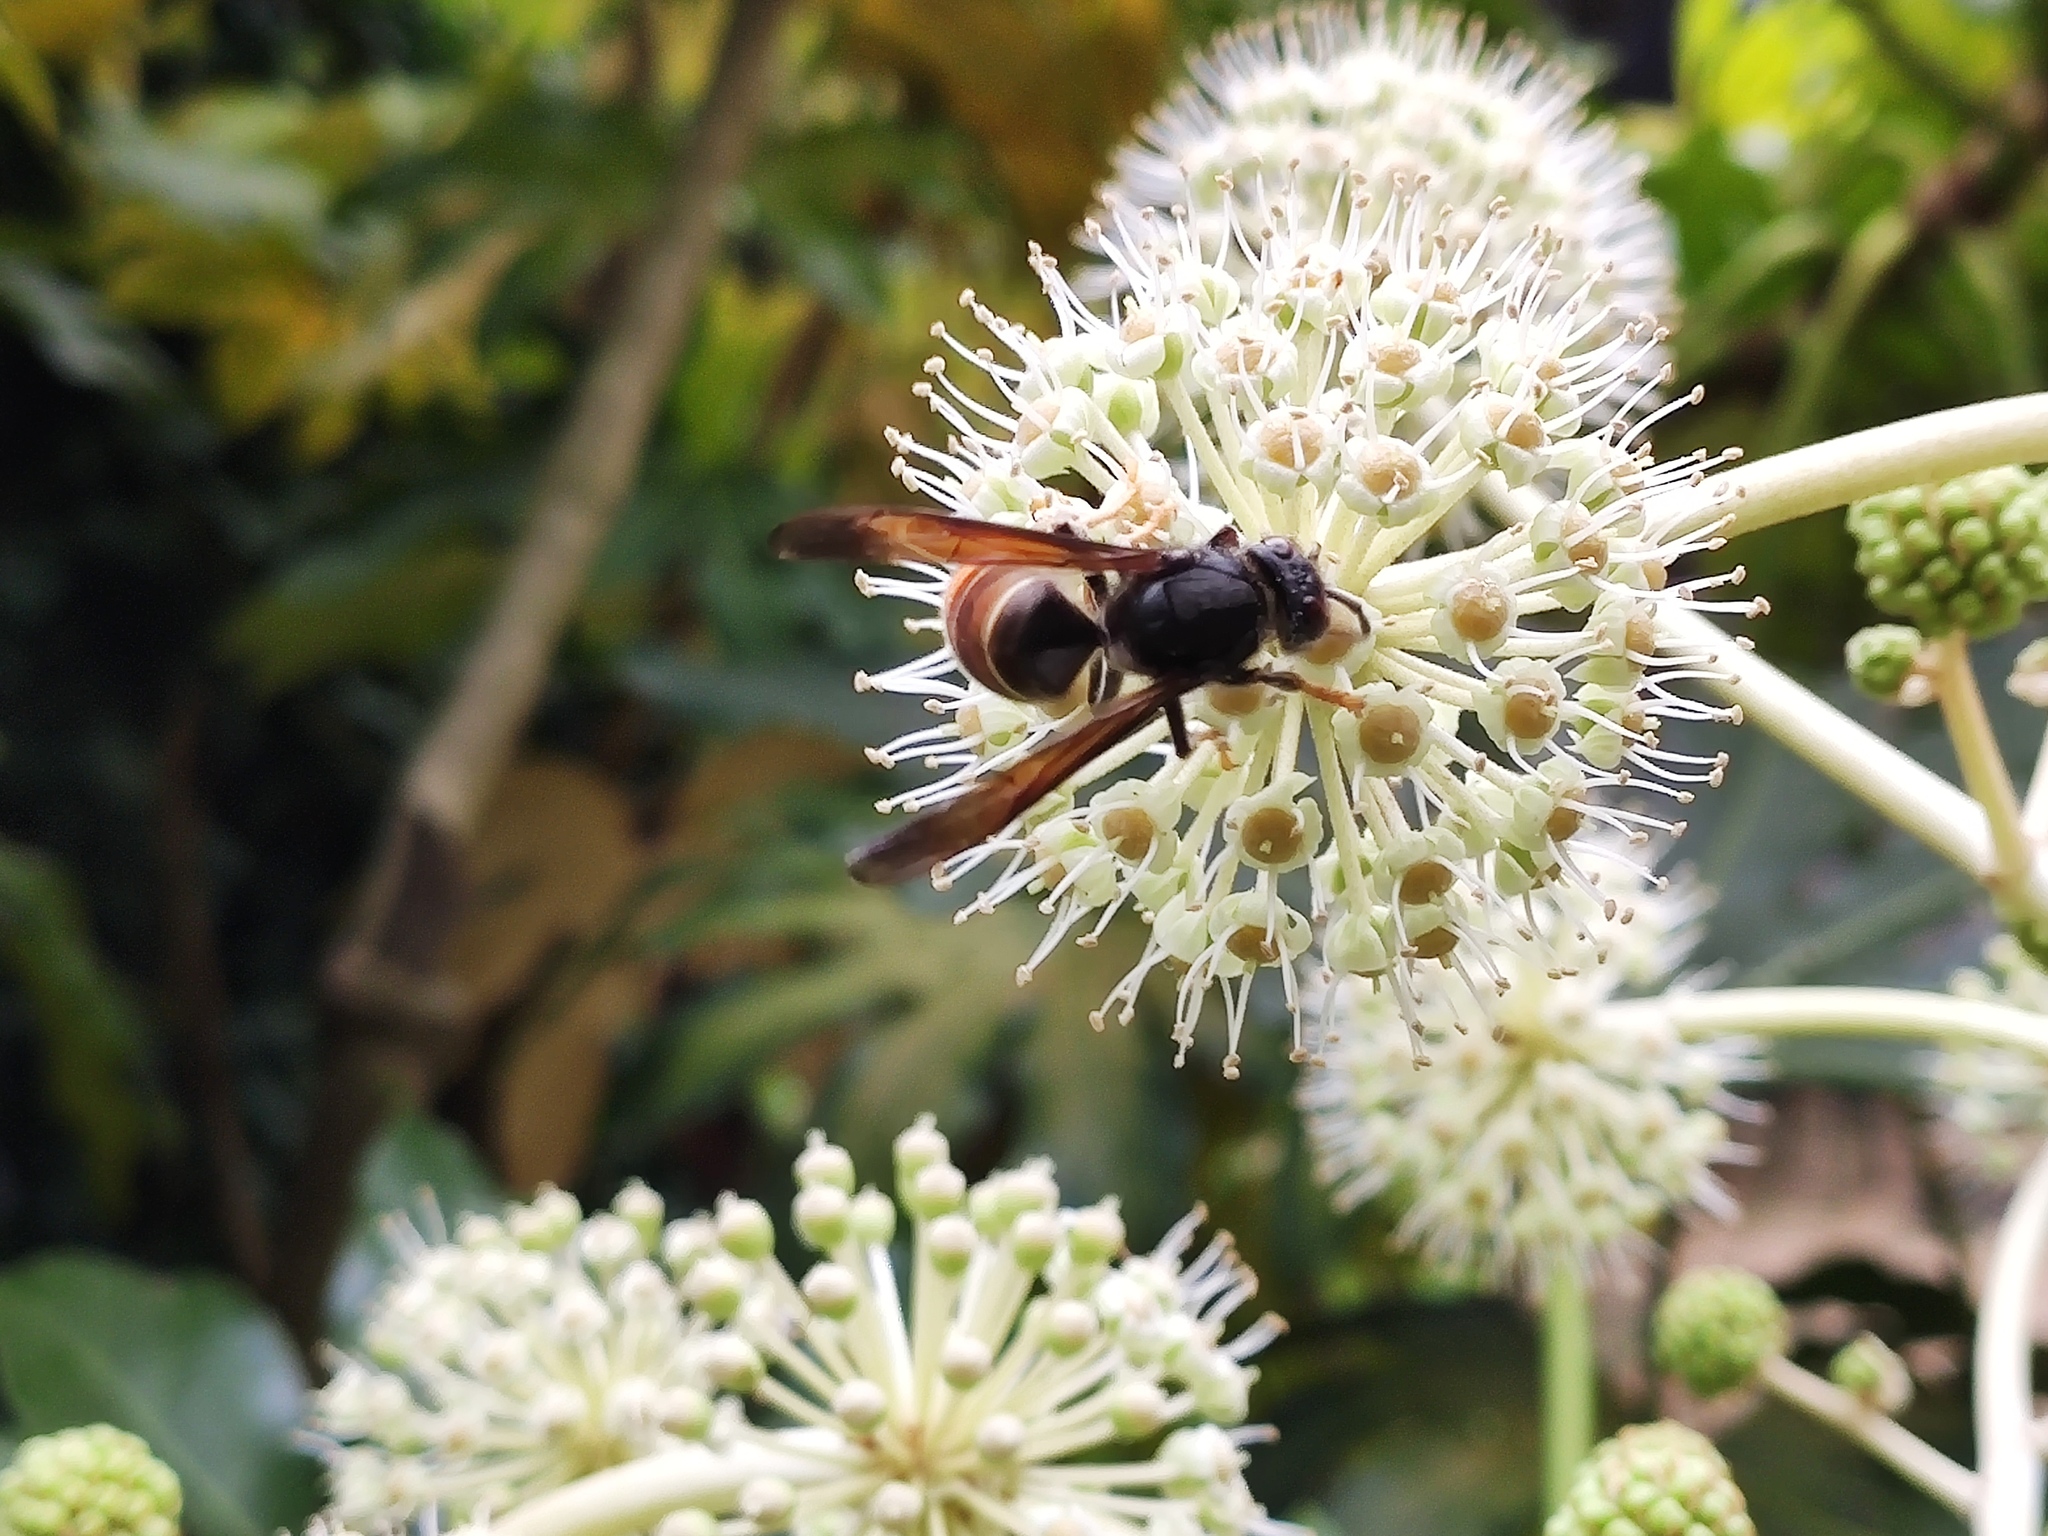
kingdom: Animalia
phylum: Arthropoda
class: Insecta
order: Hymenoptera
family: Vespidae
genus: Vespa
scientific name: Vespa velutina
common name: Asian hornet
